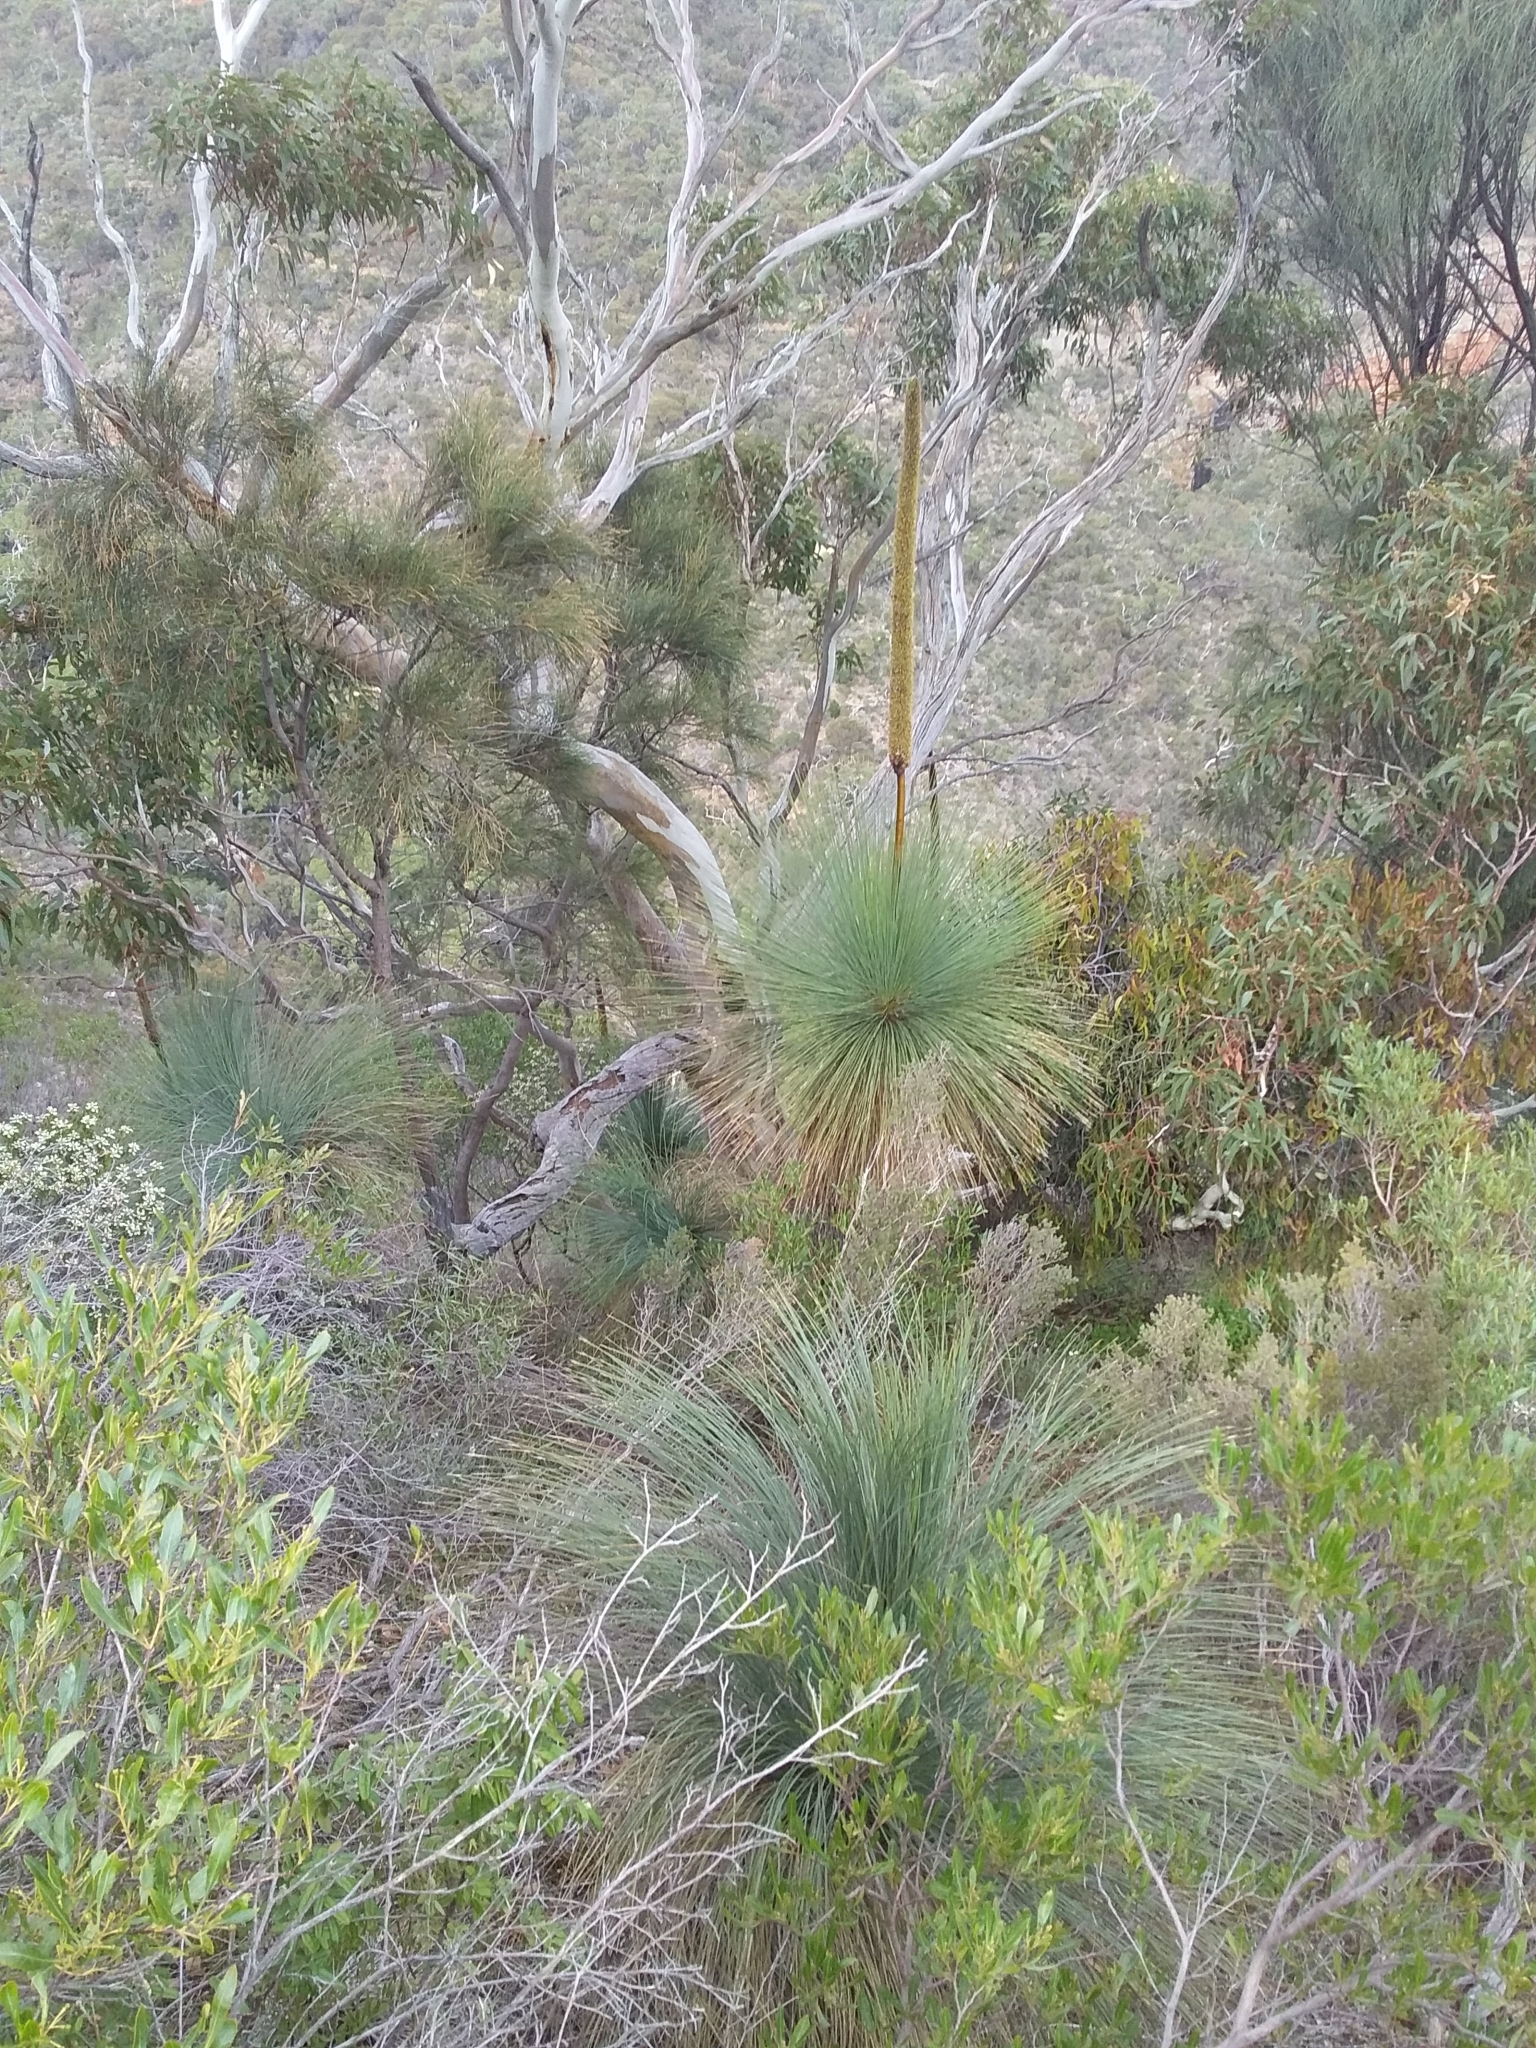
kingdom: Plantae
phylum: Tracheophyta
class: Liliopsida
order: Asparagales
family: Asphodelaceae
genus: Xanthorrhoea
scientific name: Xanthorrhoea quadrangulata
